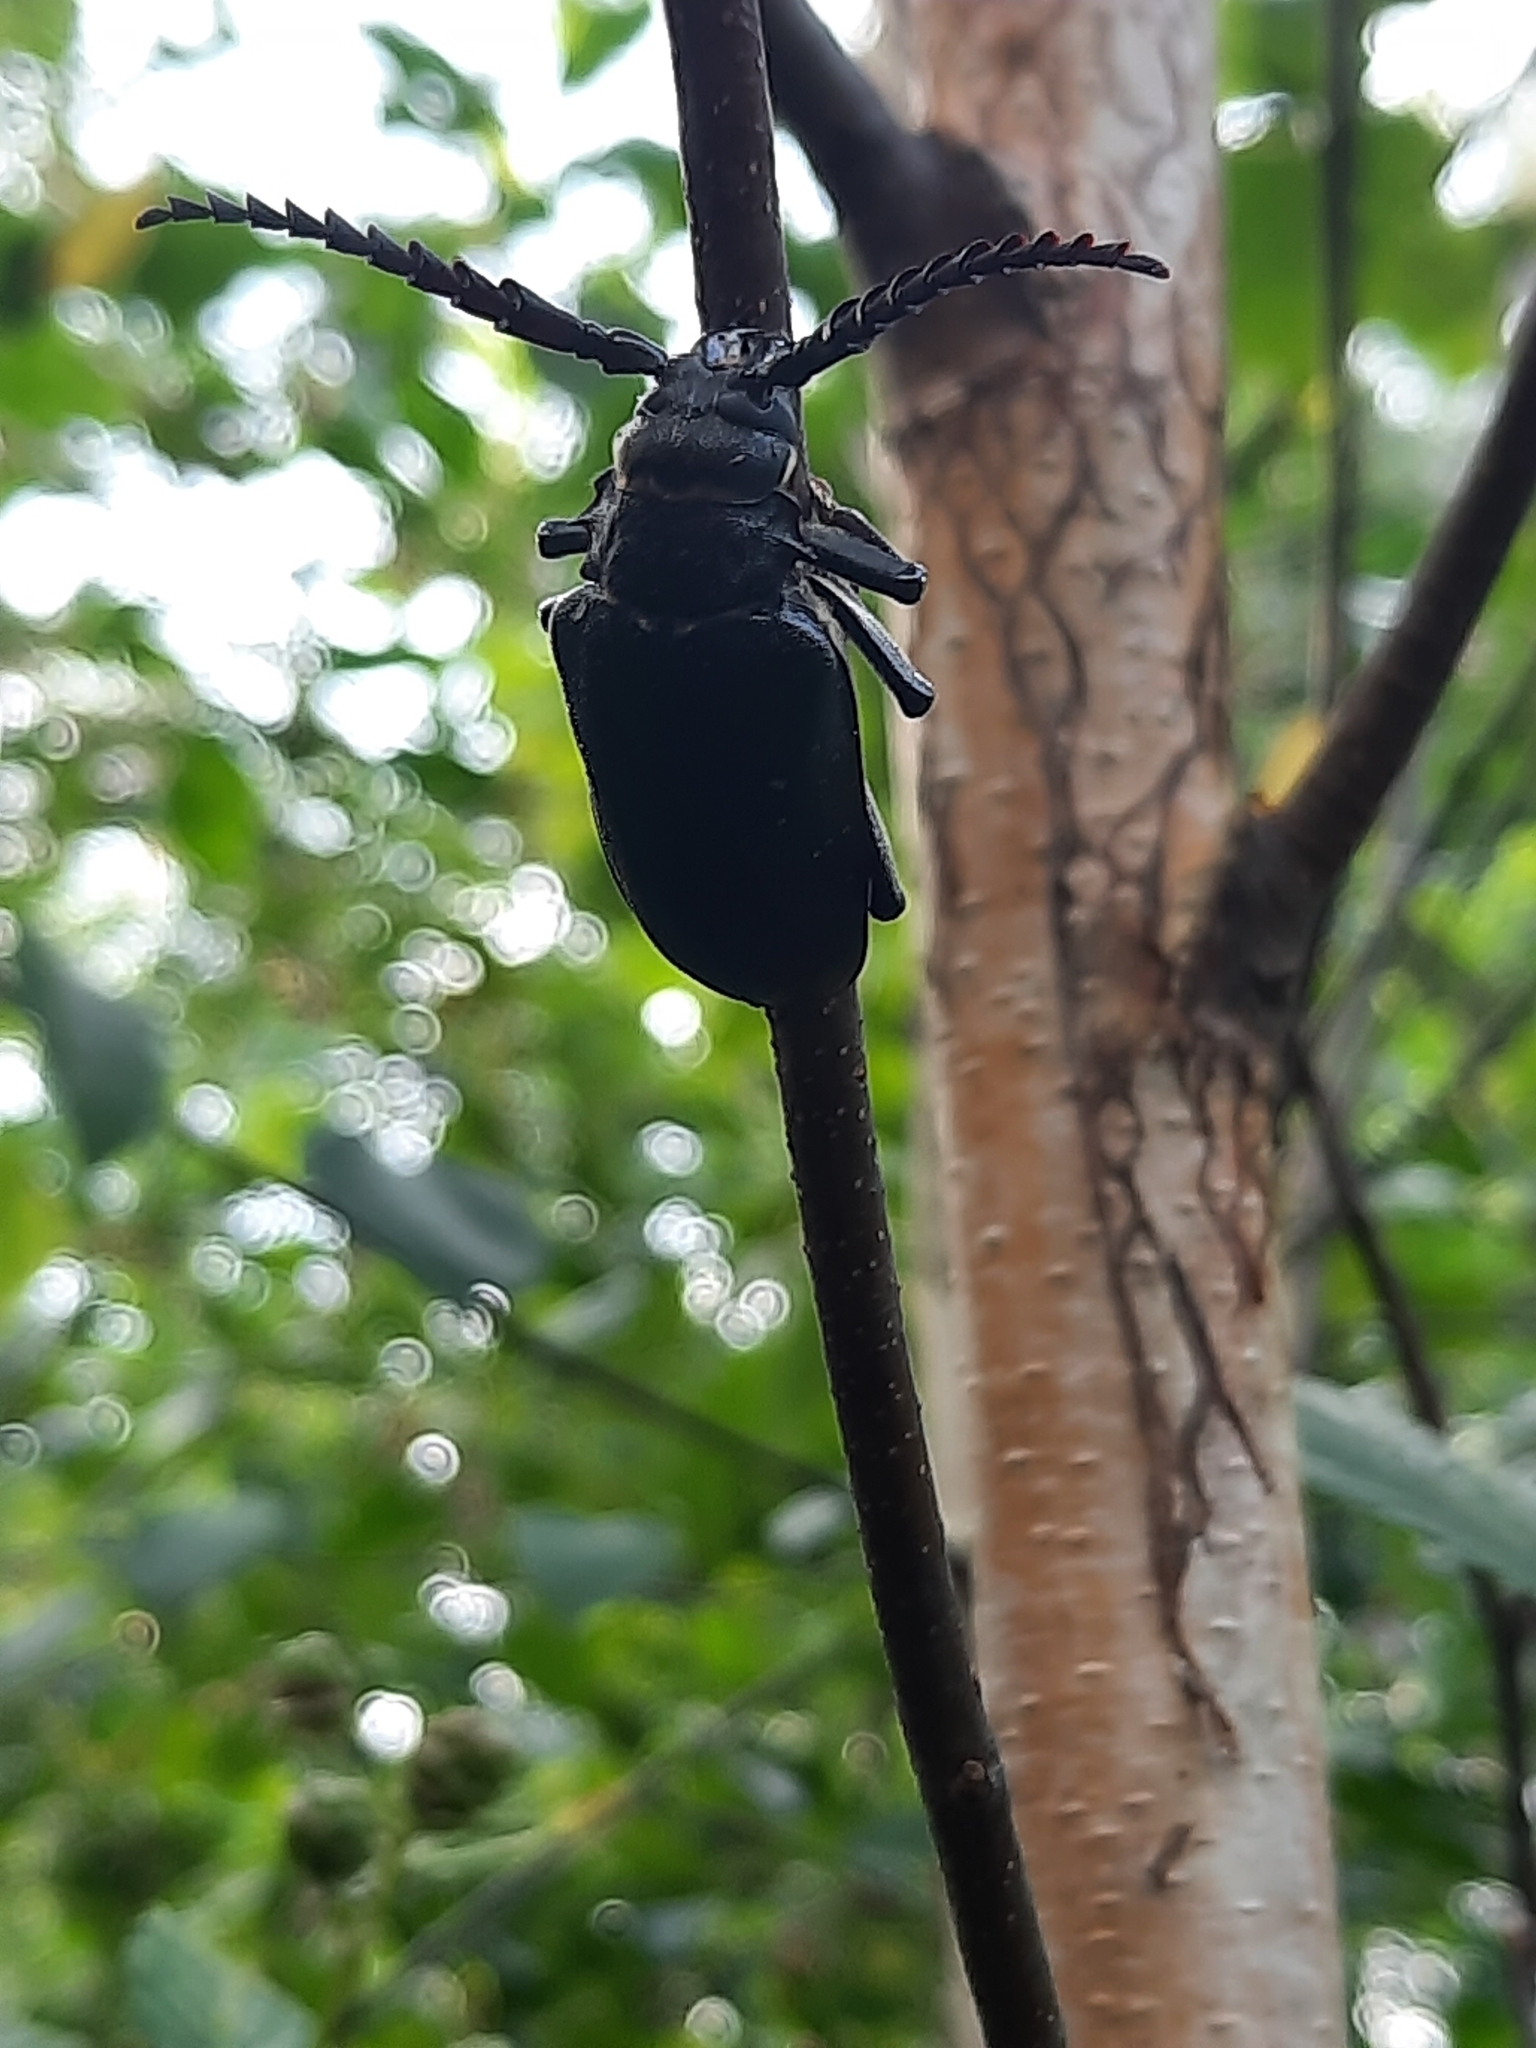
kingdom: Animalia
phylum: Arthropoda
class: Insecta
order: Coleoptera
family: Cerambycidae
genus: Prionus
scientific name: Prionus coriarius
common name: Tanner beetle
